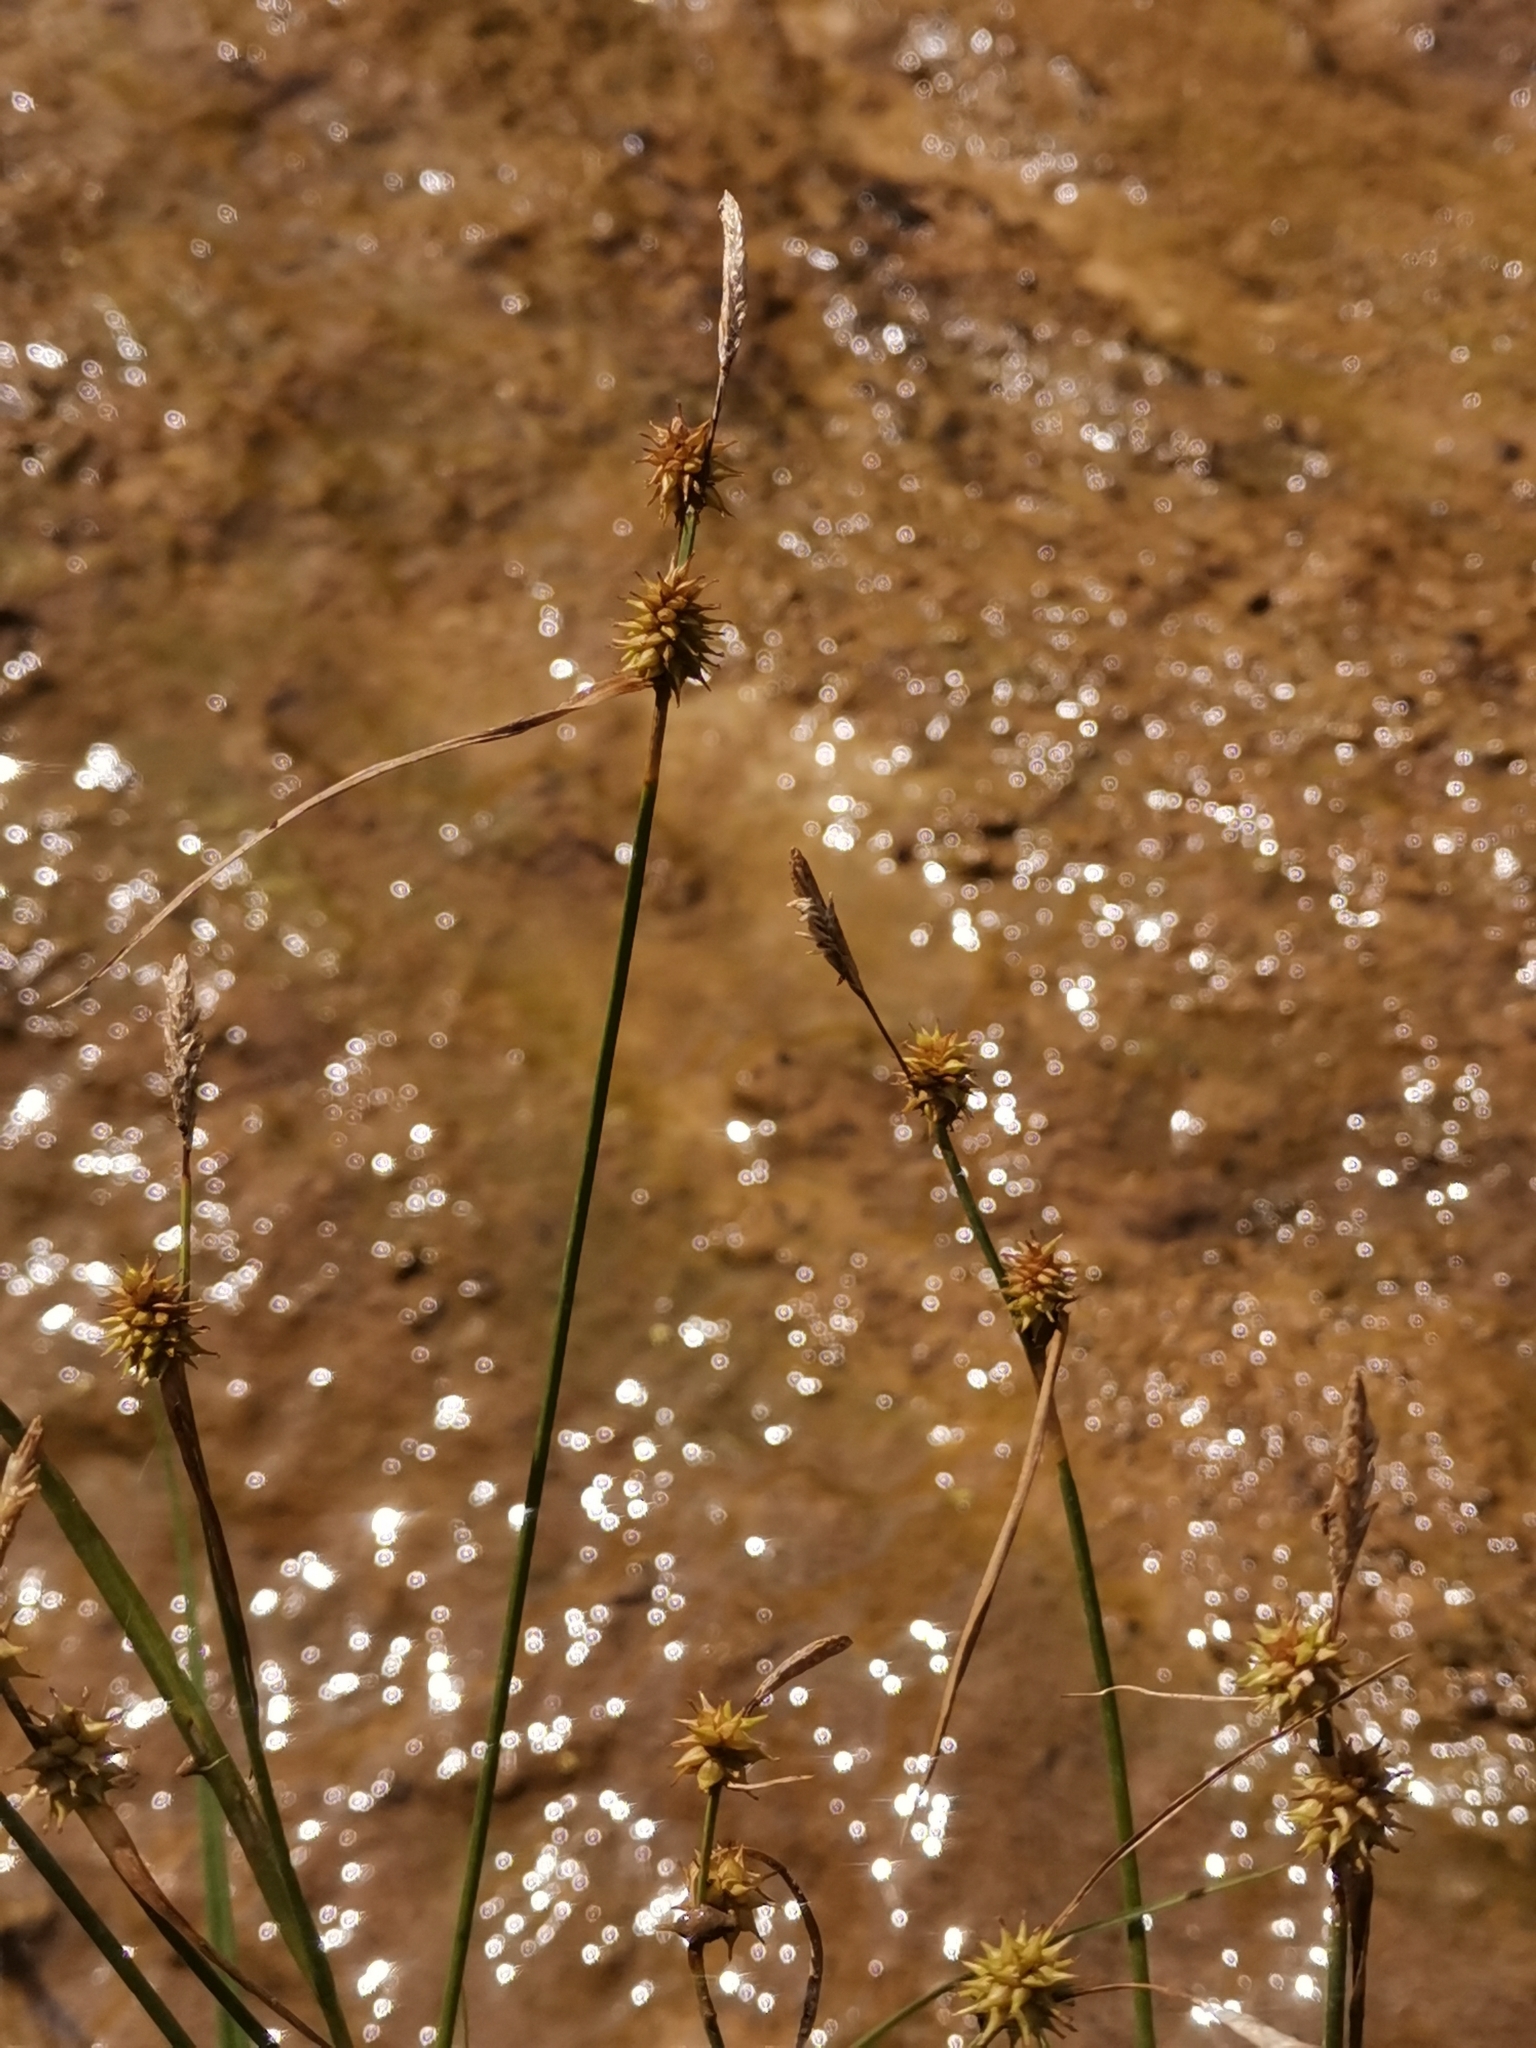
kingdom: Plantae
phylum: Tracheophyta
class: Liliopsida
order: Poales
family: Cyperaceae
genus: Carex
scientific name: Carex lepidocarpa
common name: Long-stalked yellow-sedge
